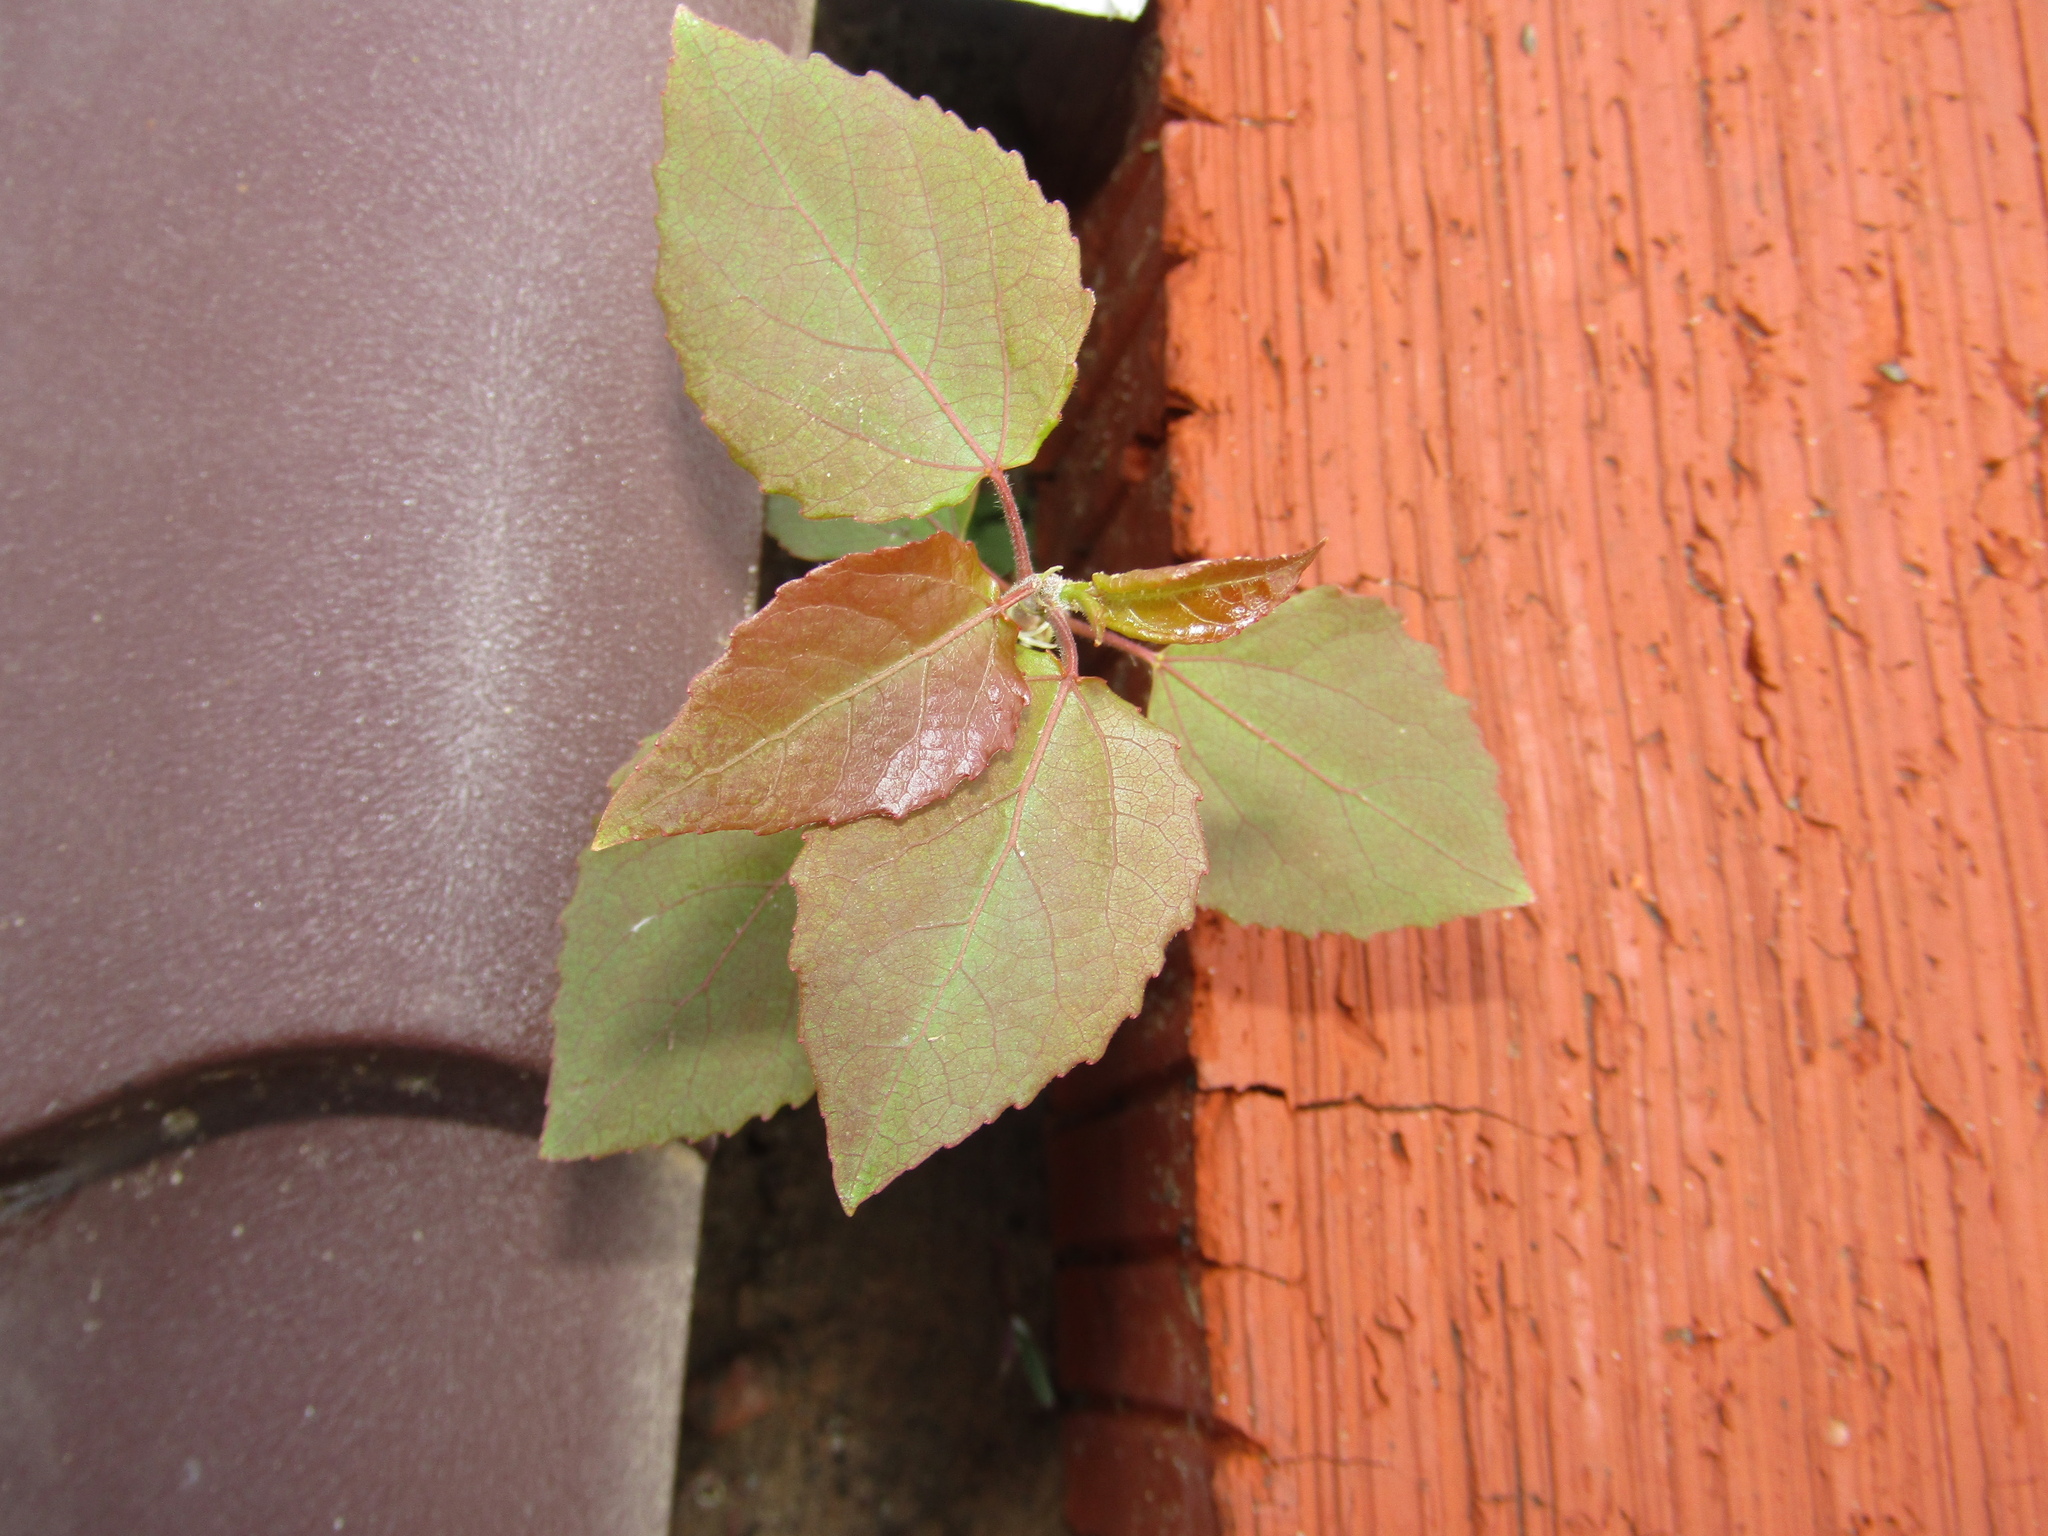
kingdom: Plantae
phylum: Tracheophyta
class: Magnoliopsida
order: Malpighiales
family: Salicaceae
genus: Populus
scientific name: Populus tremula
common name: European aspen
